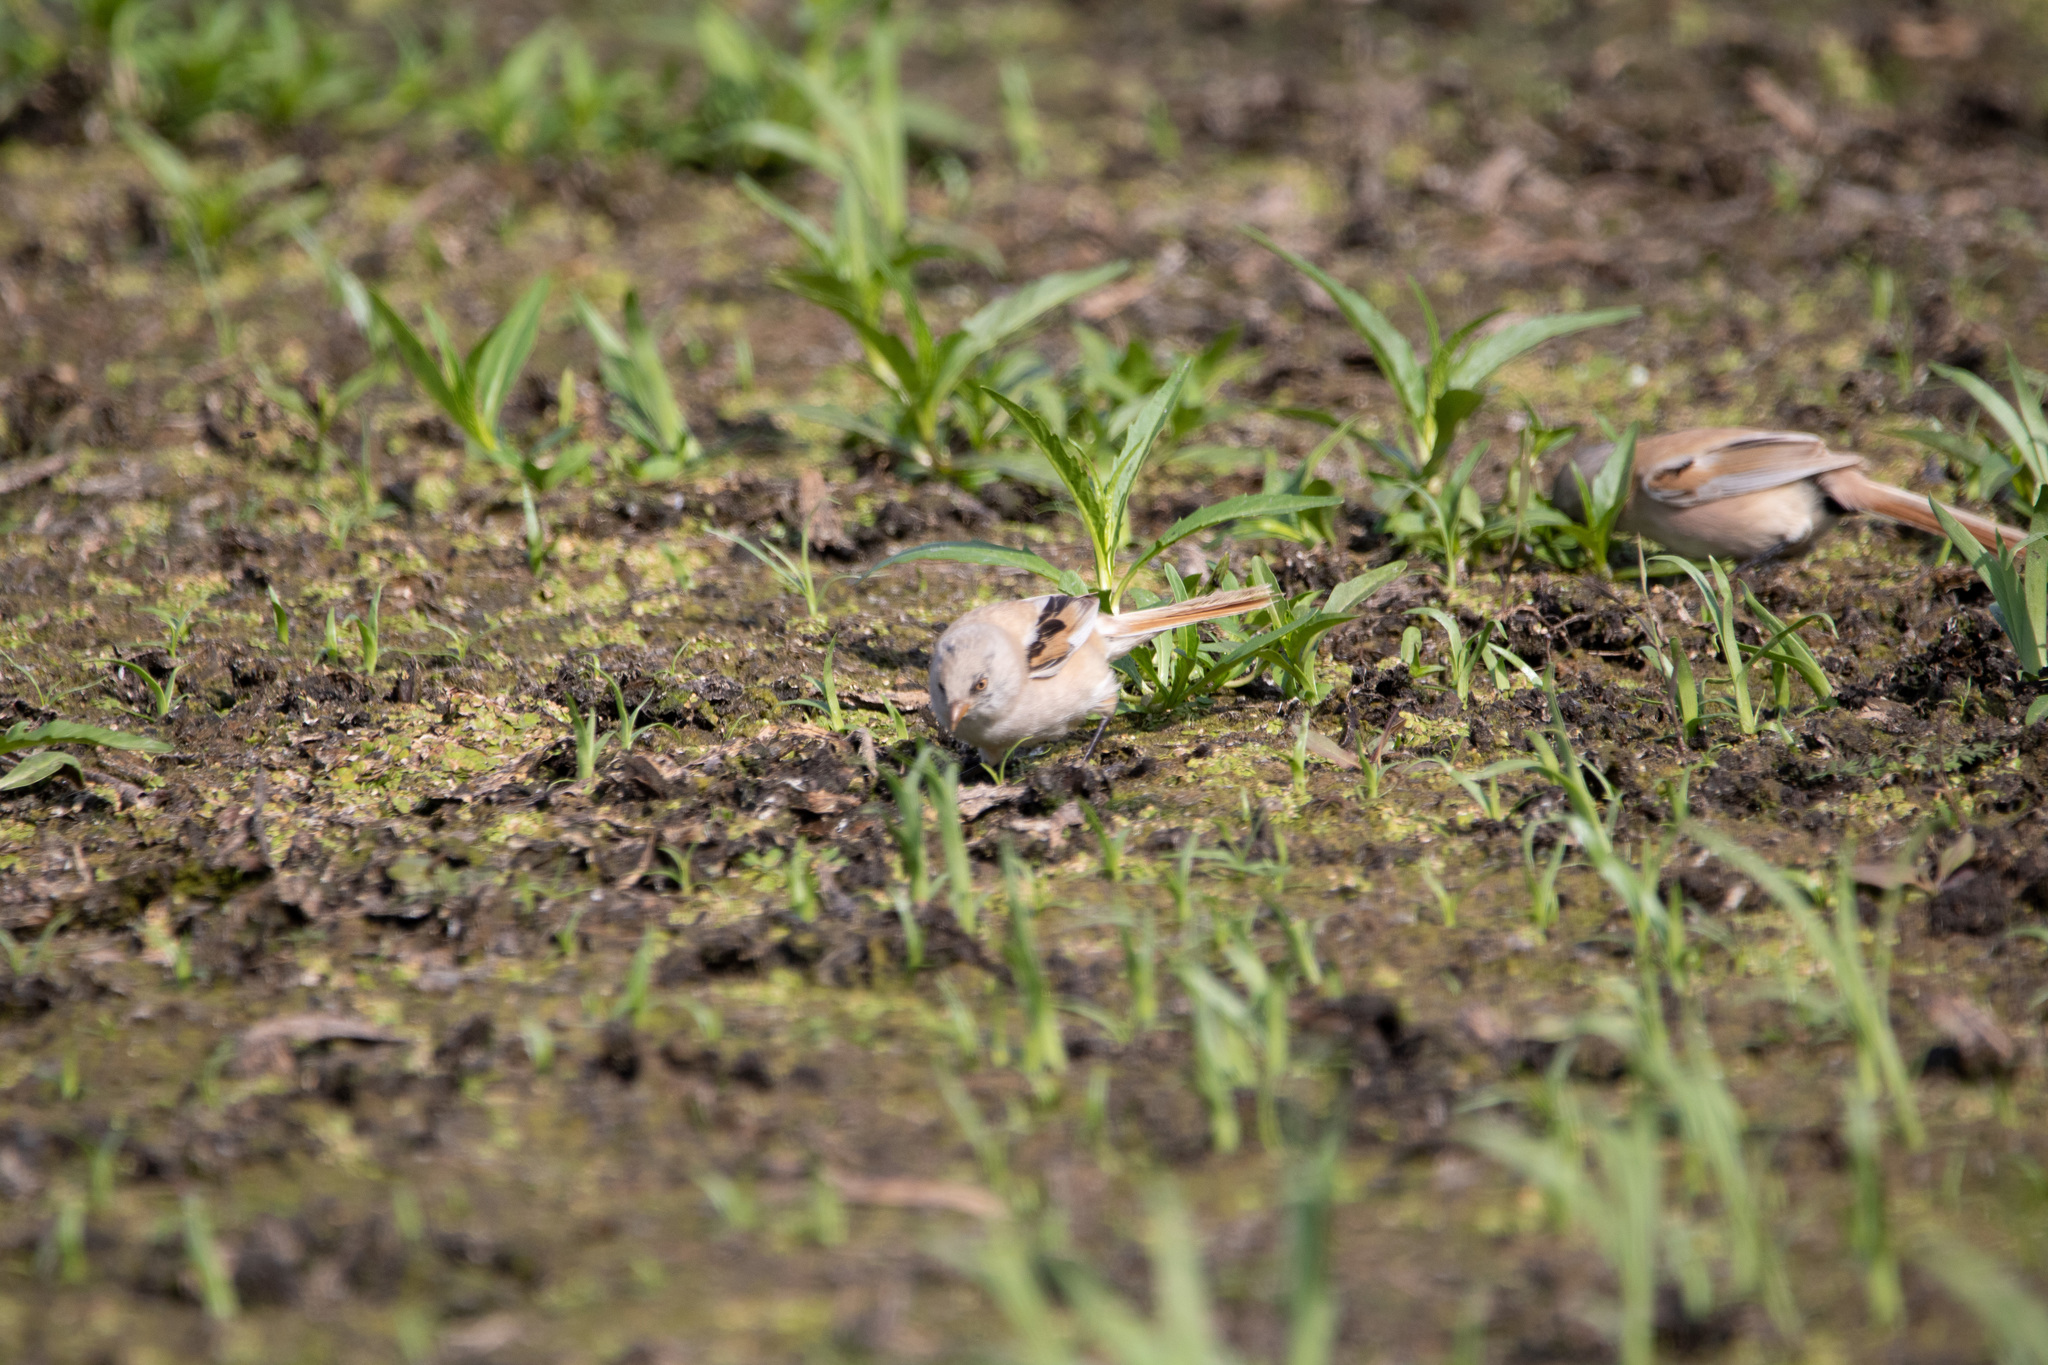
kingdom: Animalia
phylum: Chordata
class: Aves
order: Passeriformes
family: Panuridae
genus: Panurus
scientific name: Panurus biarmicus
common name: Bearded reedling
